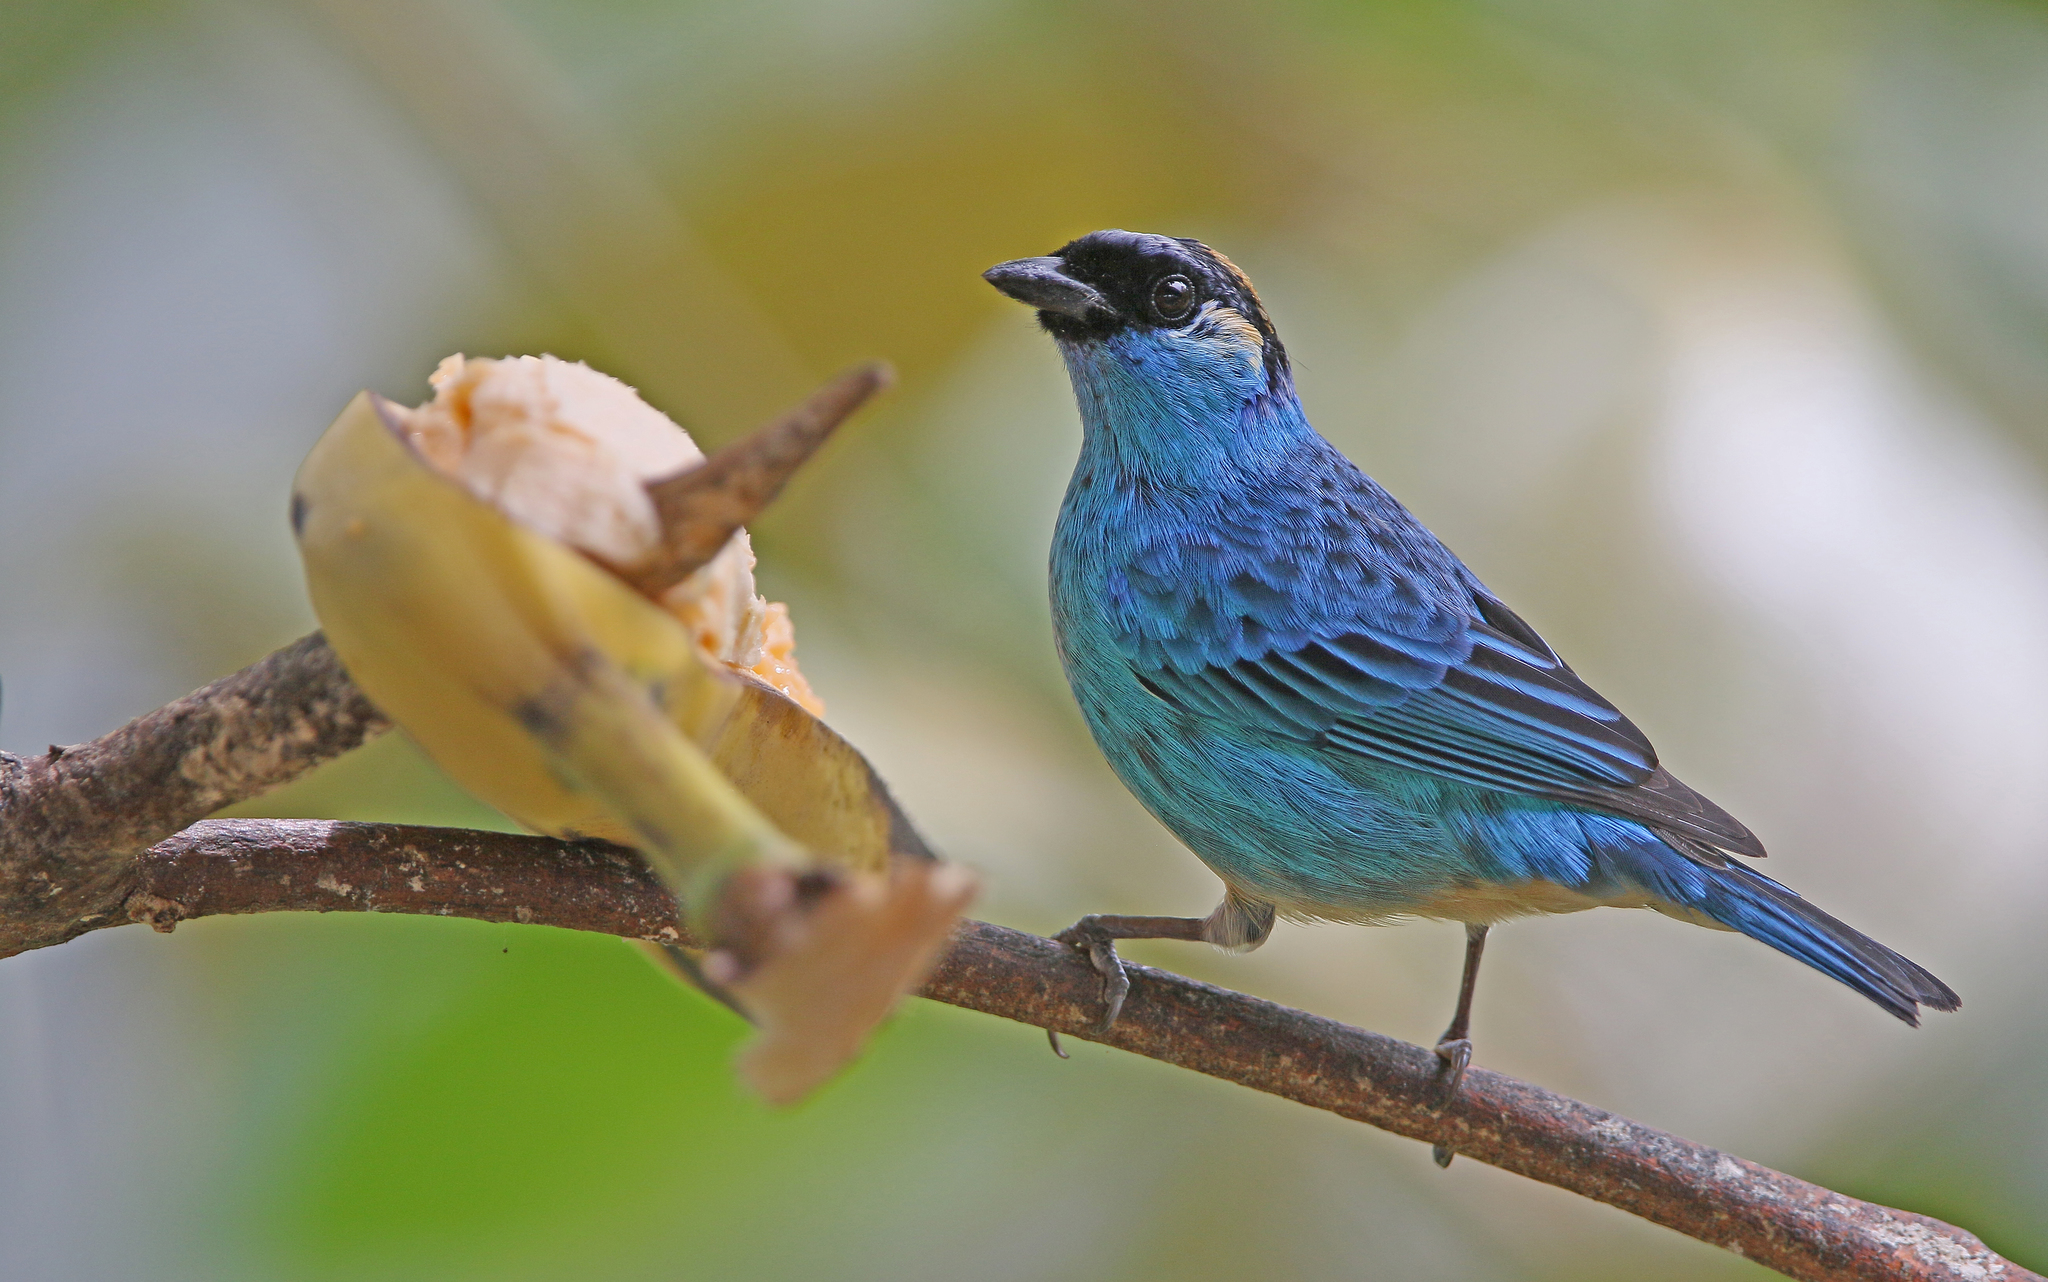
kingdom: Animalia
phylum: Chordata
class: Aves
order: Passeriformes
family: Thraupidae
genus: Chalcothraupis
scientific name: Chalcothraupis ruficervix
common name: Golden-naped tanager
